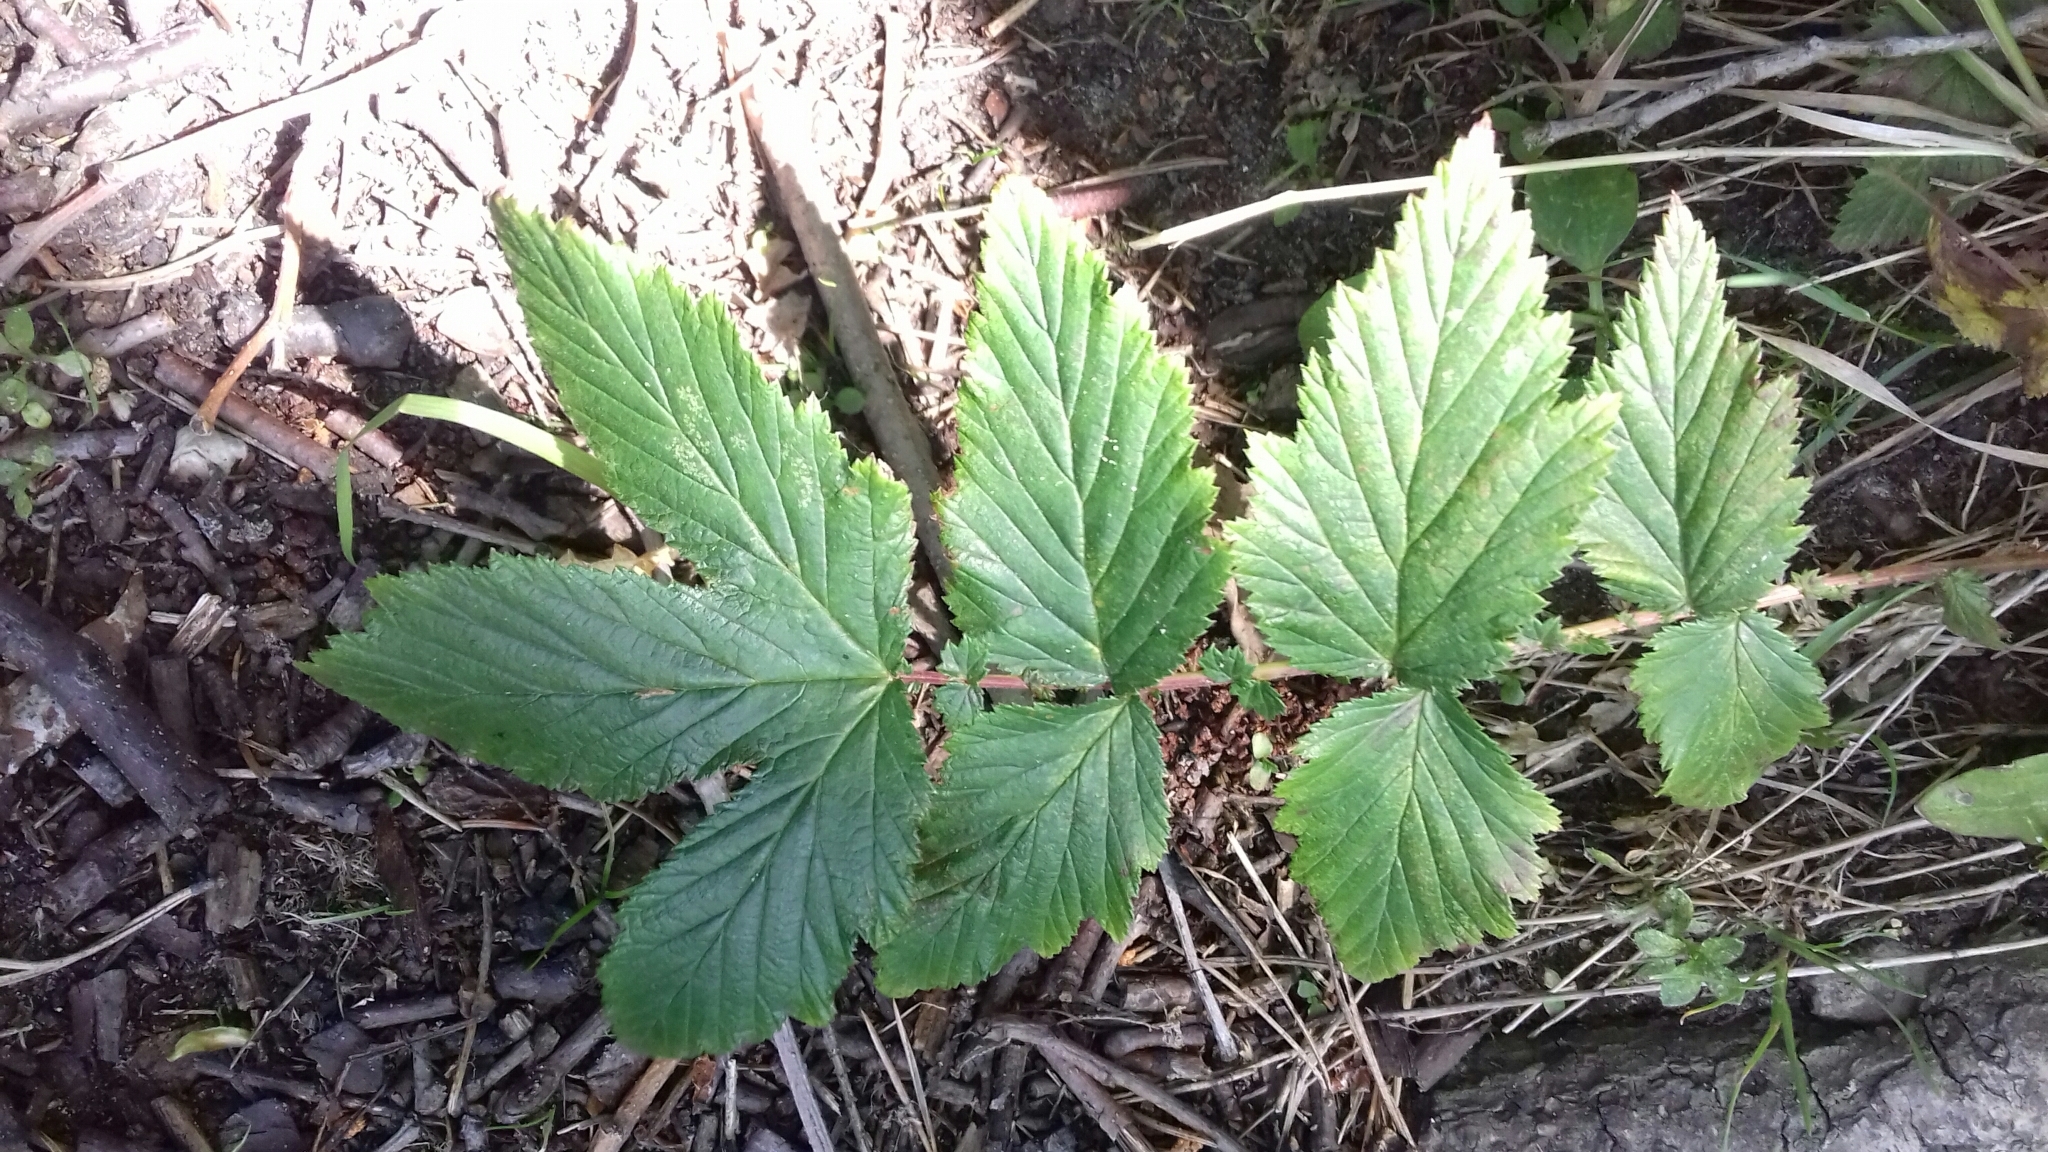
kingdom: Plantae
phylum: Tracheophyta
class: Magnoliopsida
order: Rosales
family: Rosaceae
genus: Filipendula
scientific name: Filipendula ulmaria
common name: Meadowsweet
